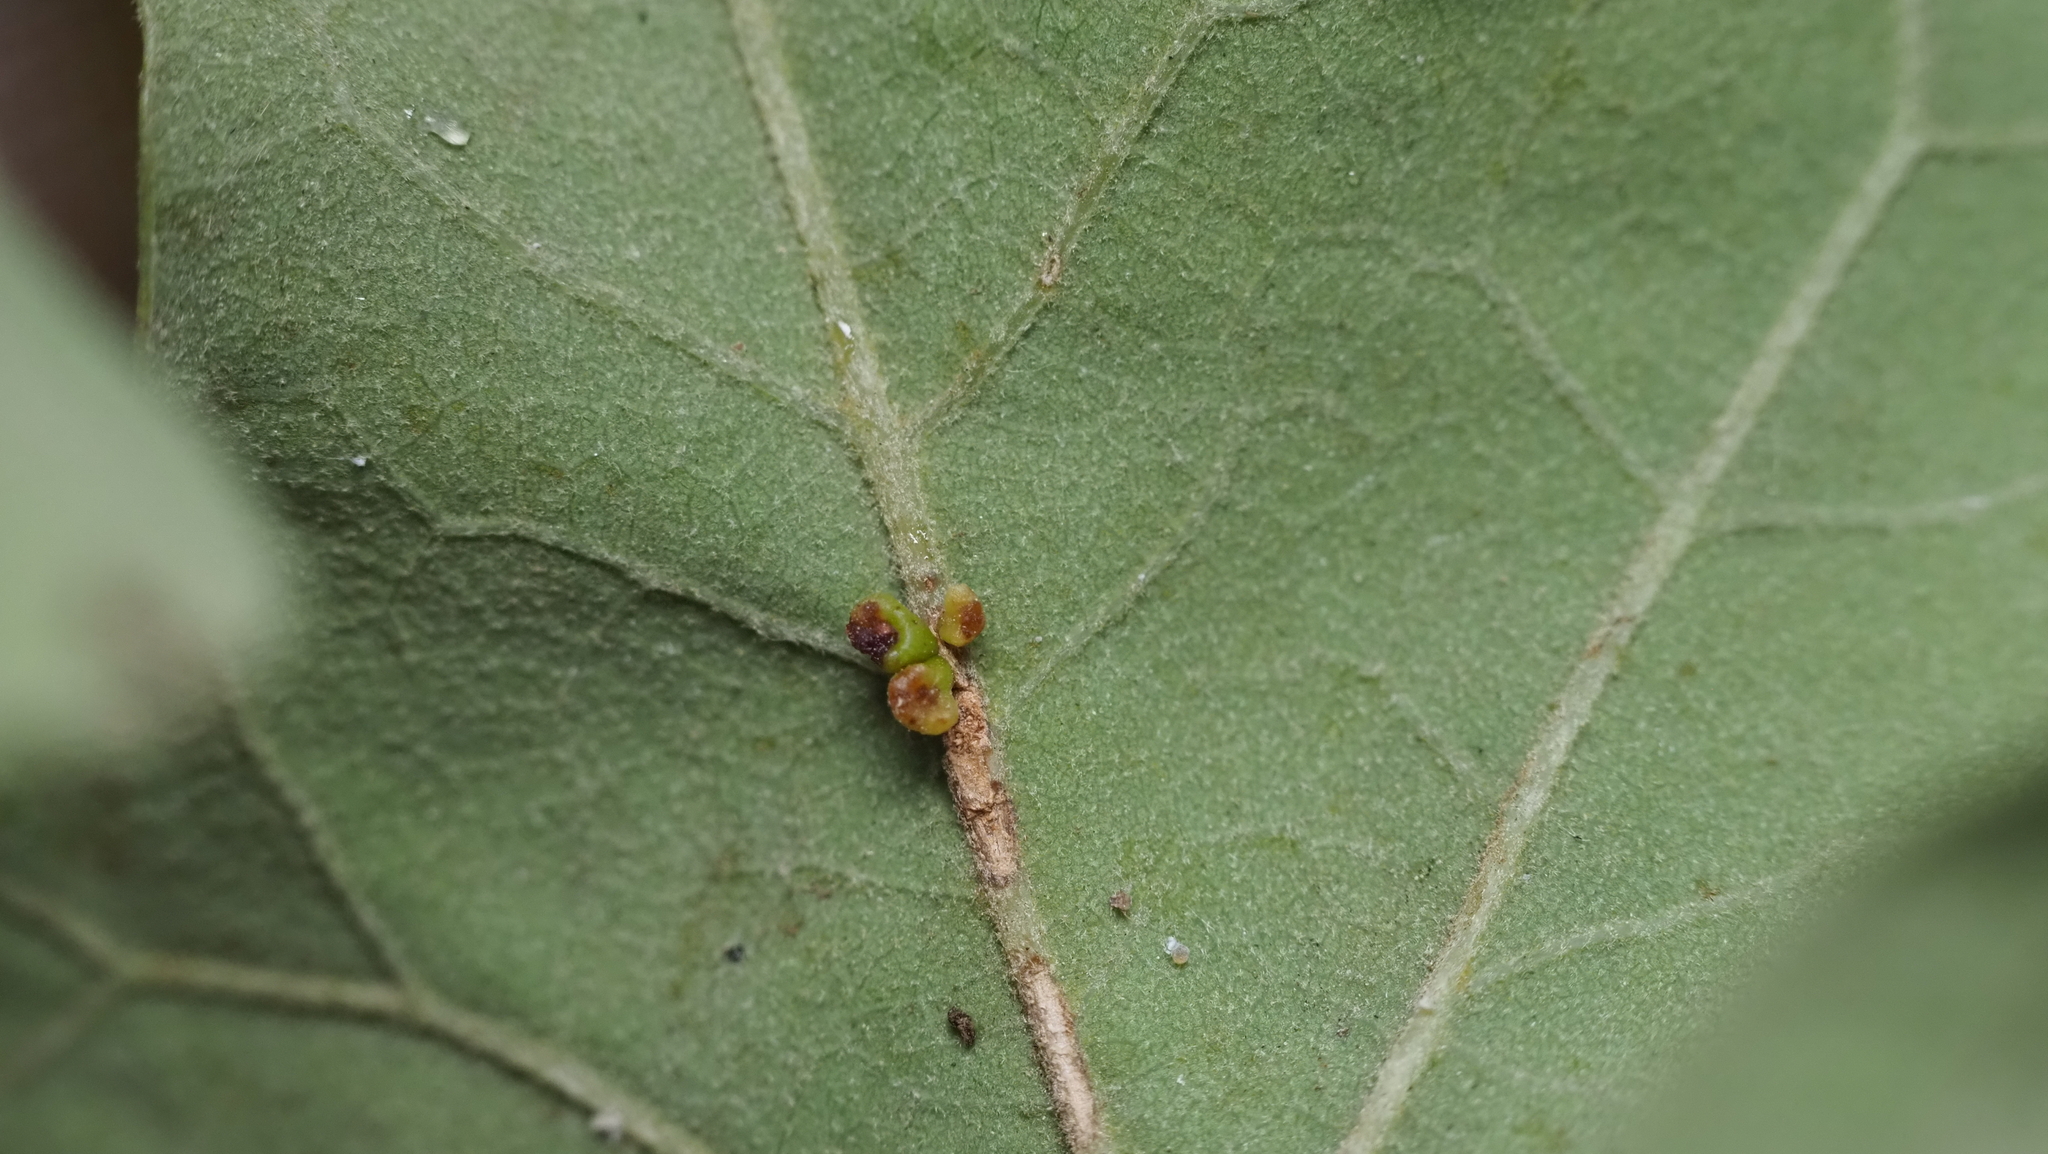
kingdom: Animalia
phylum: Arthropoda
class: Insecta
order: Hymenoptera
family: Cynipidae
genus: Andricus
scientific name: Andricus lustrans
